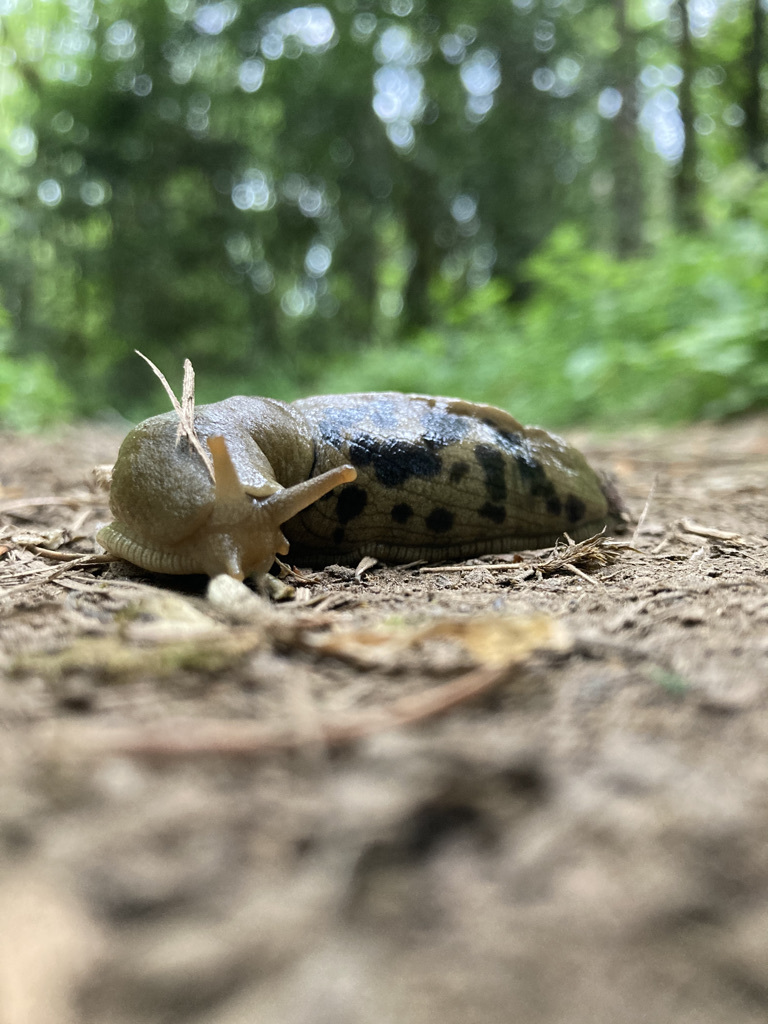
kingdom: Animalia
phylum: Mollusca
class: Gastropoda
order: Stylommatophora
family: Ariolimacidae
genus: Ariolimax
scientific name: Ariolimax columbianus
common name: Pacific banana slug
